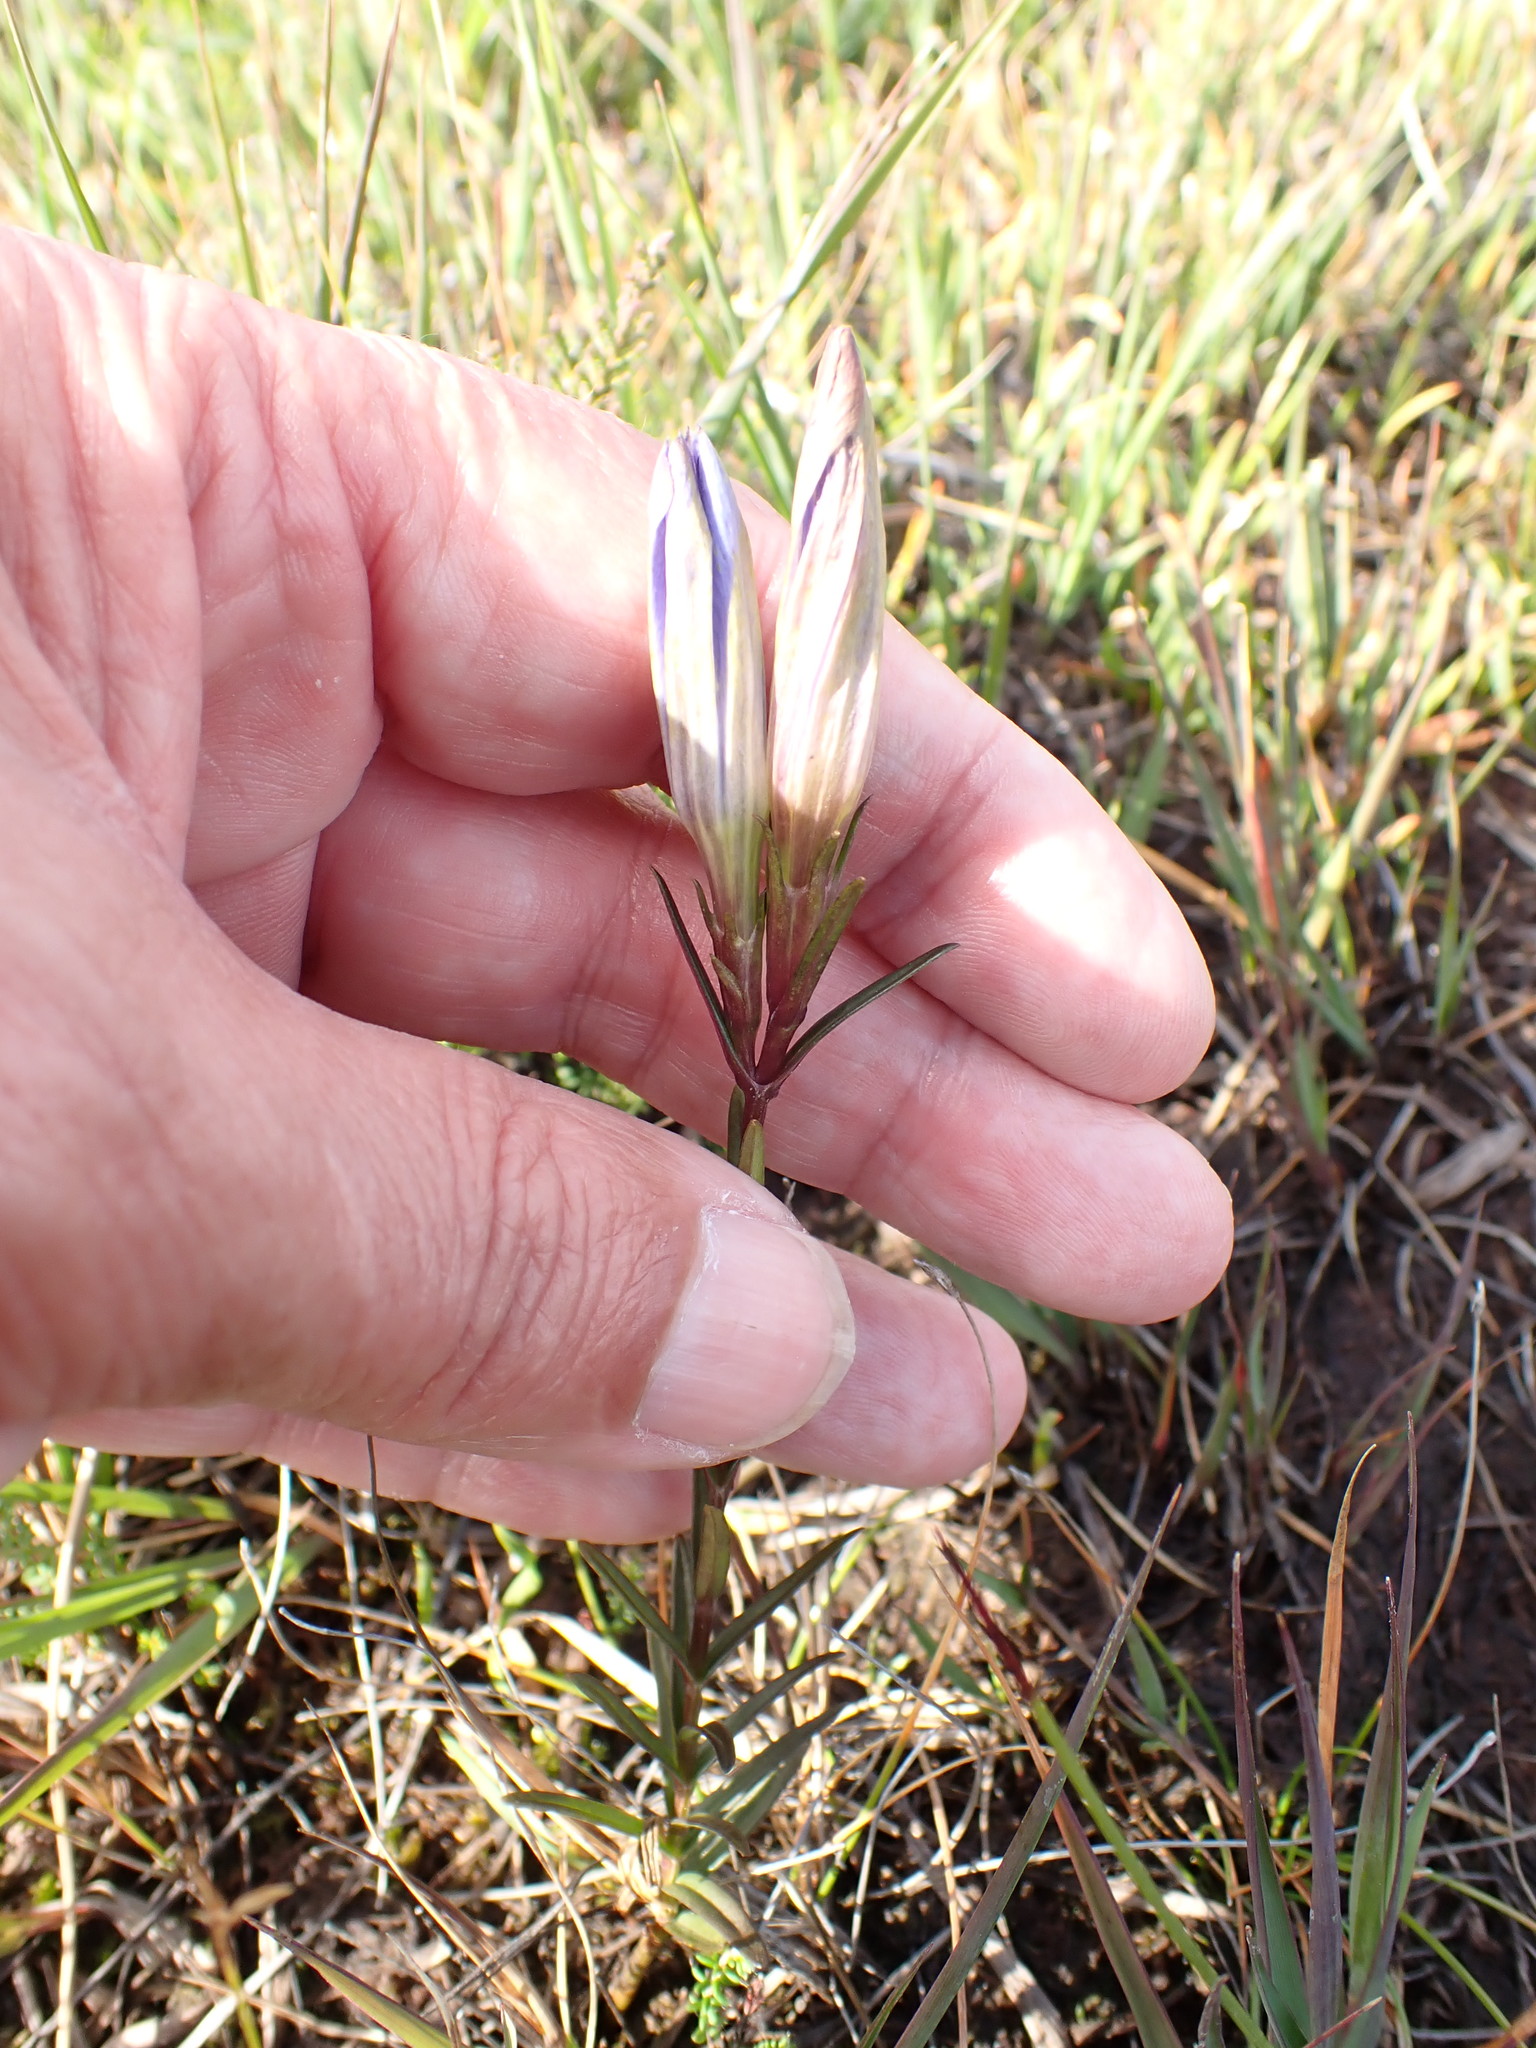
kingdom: Plantae
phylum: Tracheophyta
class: Magnoliopsida
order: Gentianales
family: Gentianaceae
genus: Gentiana
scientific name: Gentiana pneumonanthe
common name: Marsh gentian
